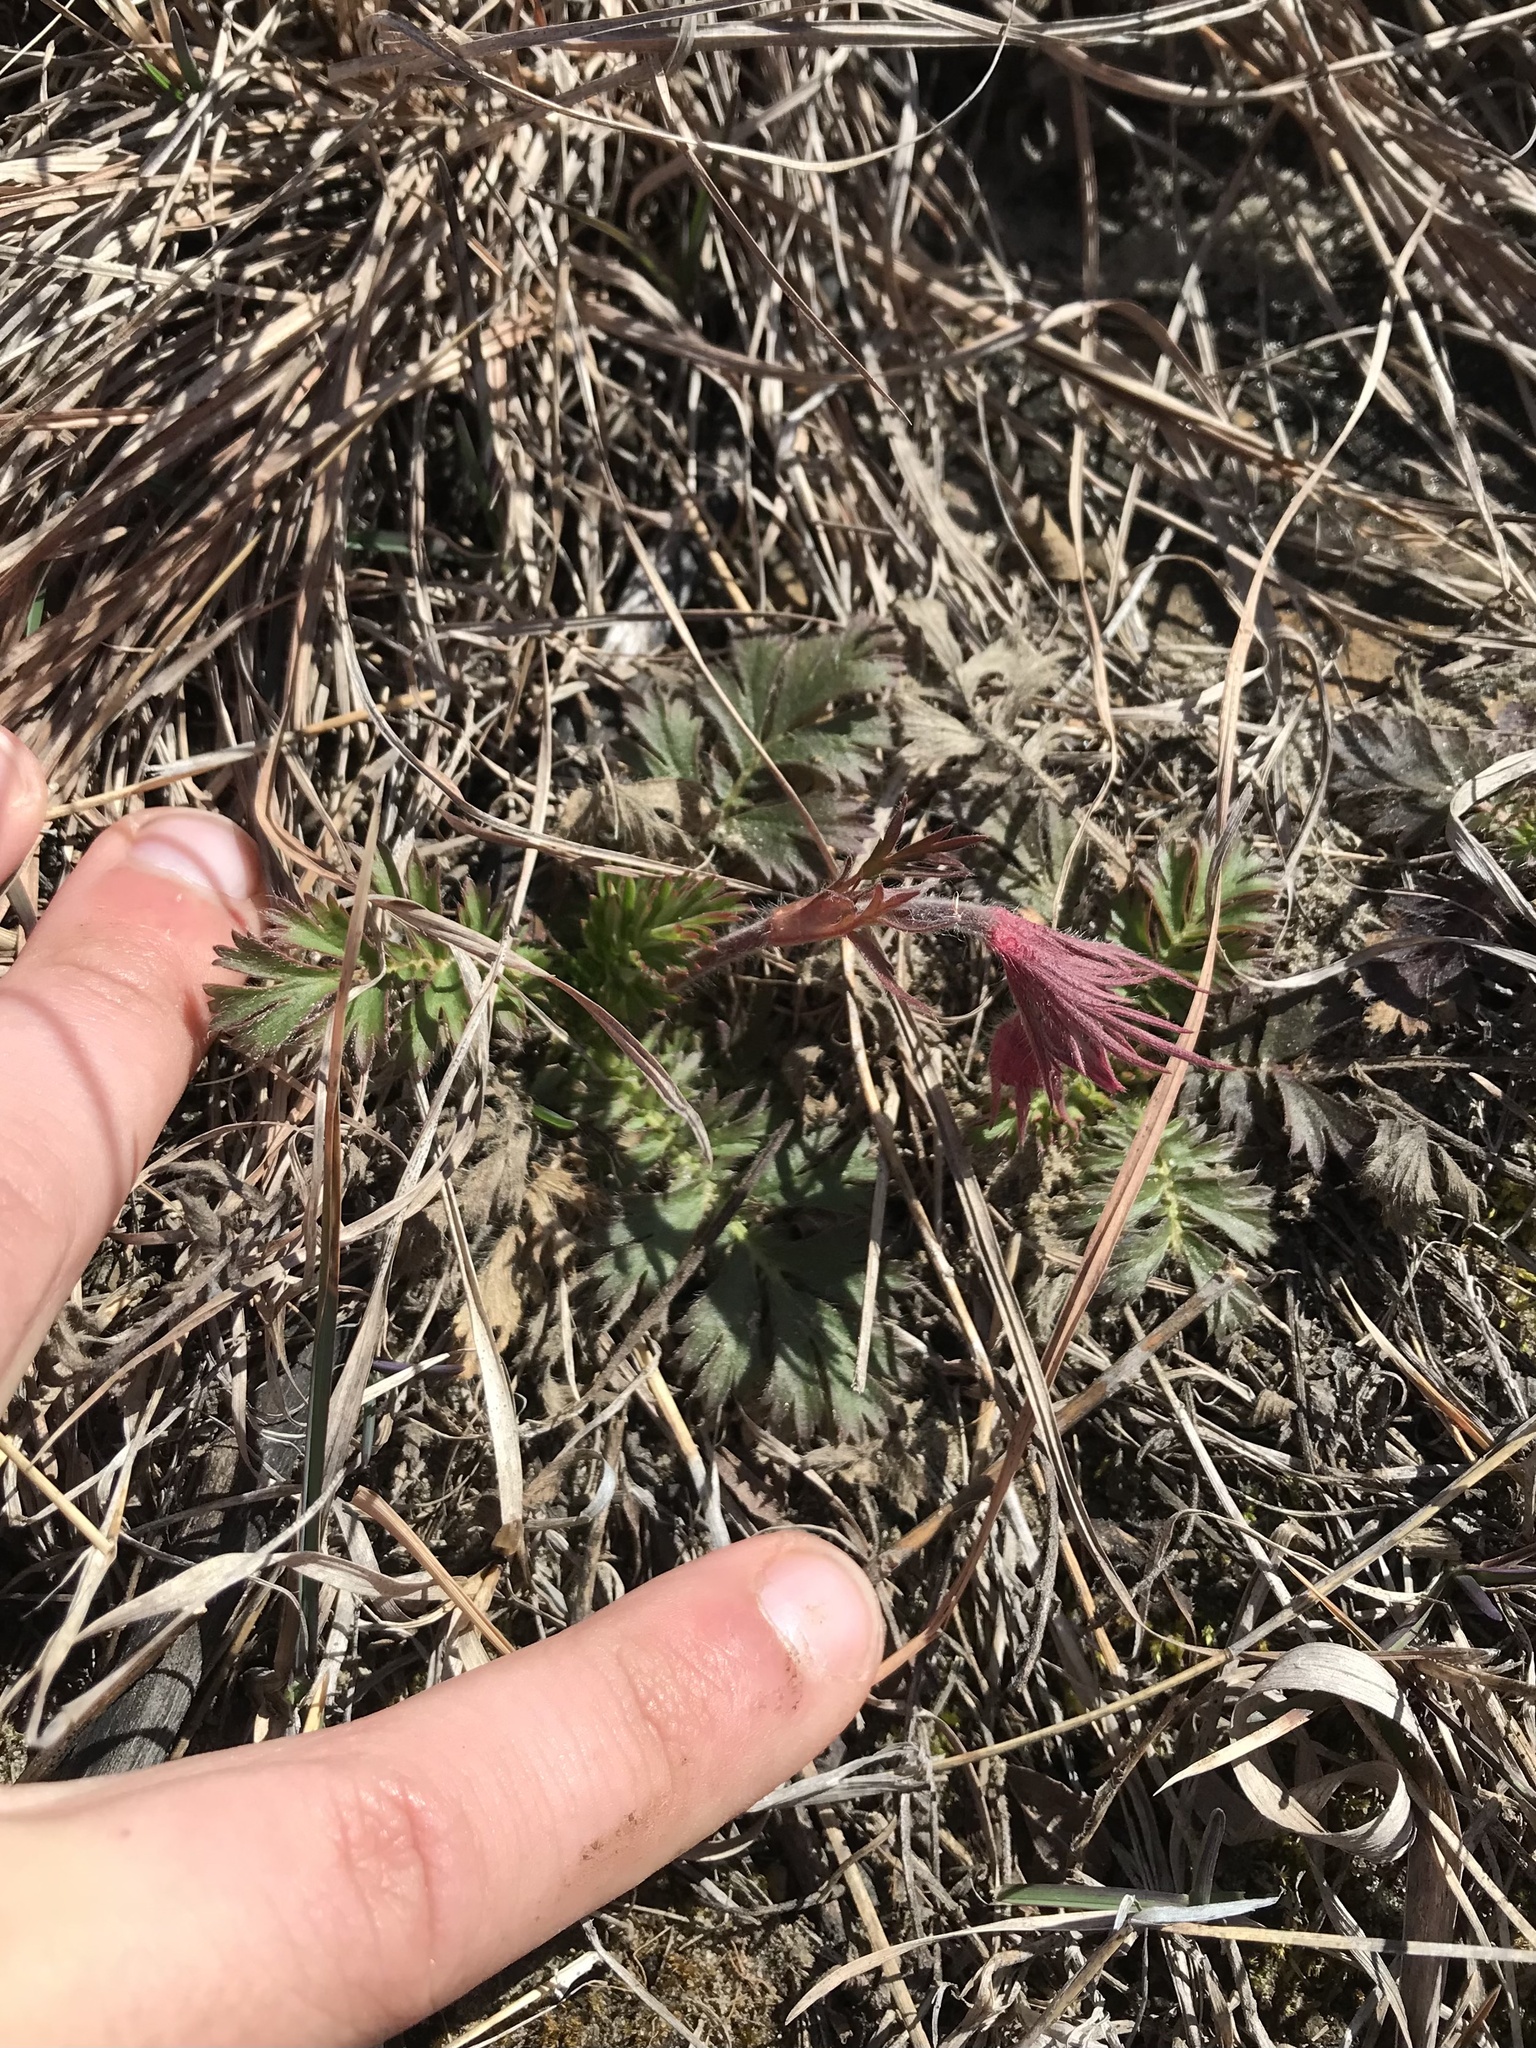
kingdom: Plantae
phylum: Tracheophyta
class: Magnoliopsida
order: Rosales
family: Rosaceae
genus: Geum
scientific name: Geum triflorum
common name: Old man's whiskers
